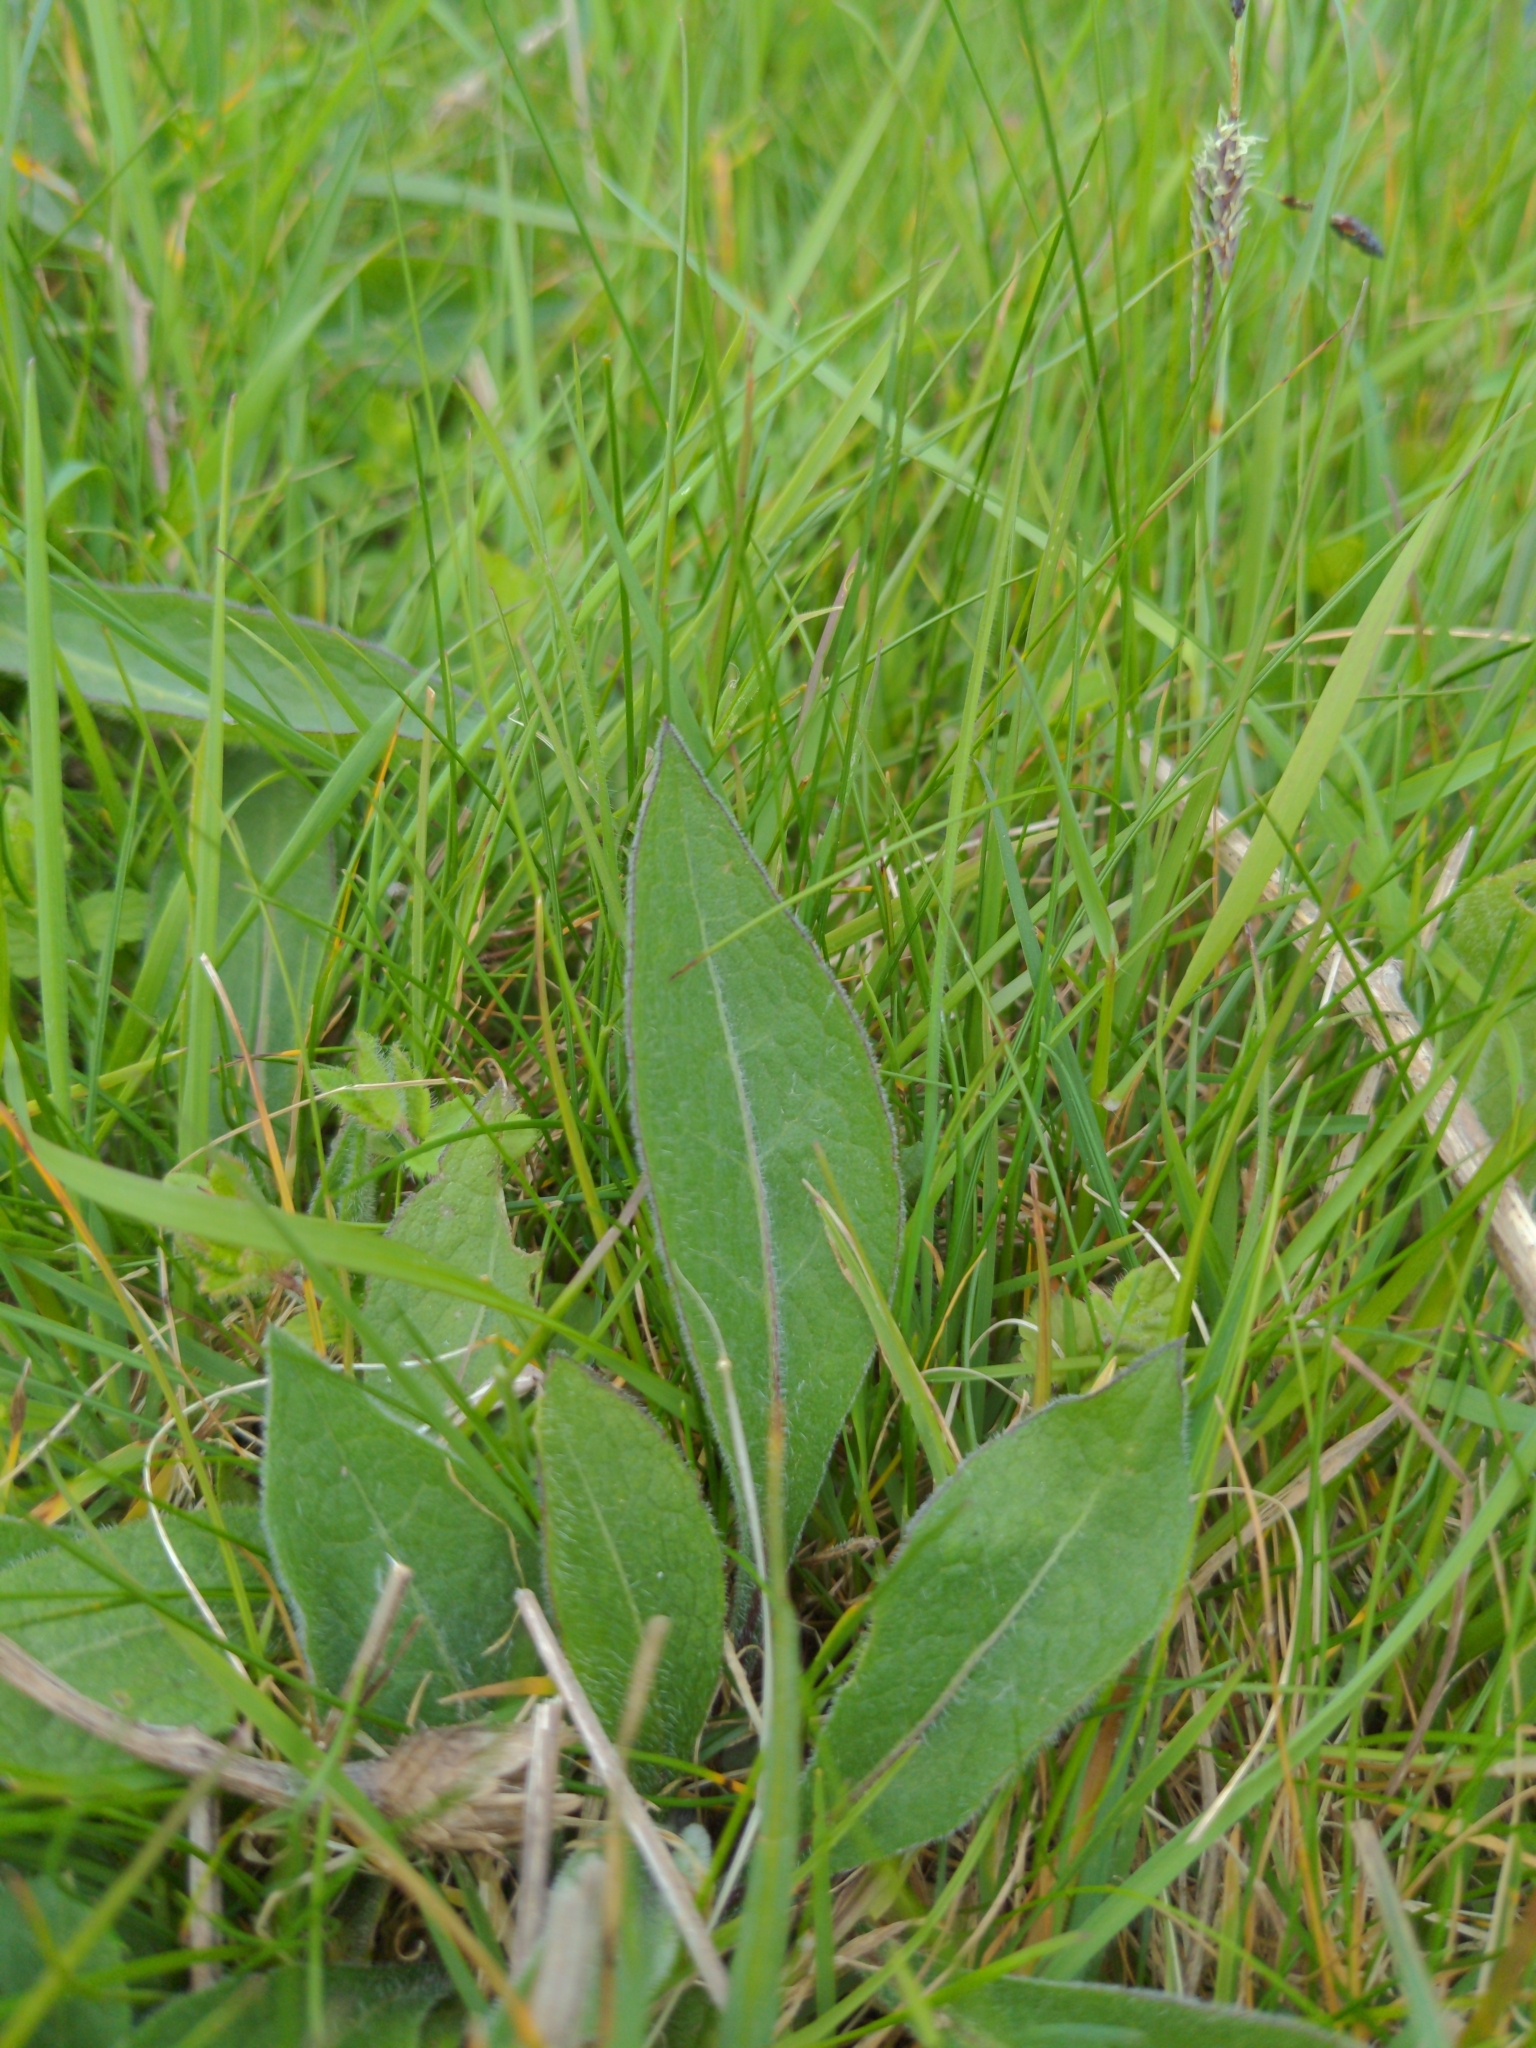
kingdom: Plantae
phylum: Tracheophyta
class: Magnoliopsida
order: Asterales
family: Asteraceae
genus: Centaurea
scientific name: Centaurea nigra
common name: Lesser knapweed
